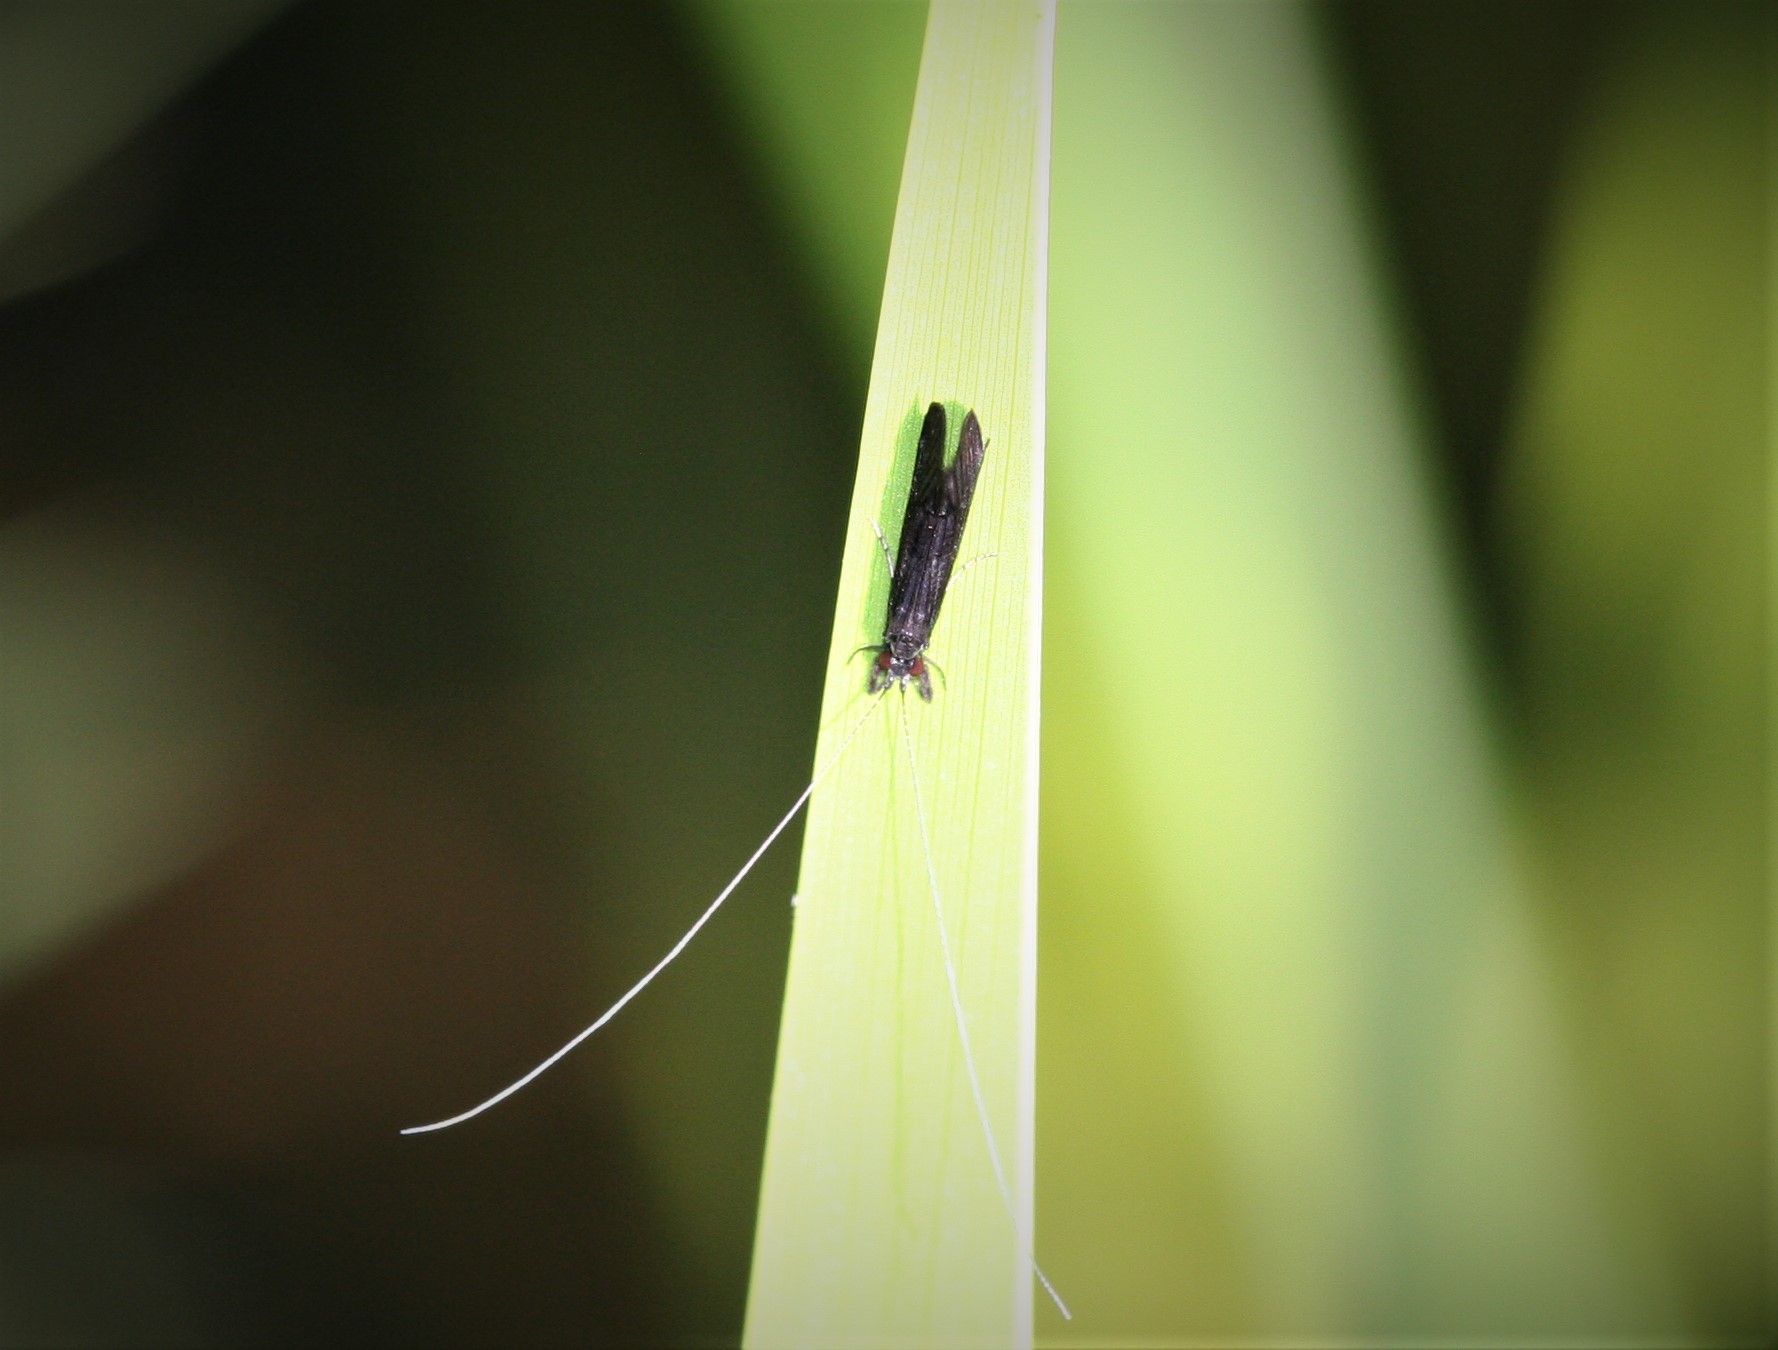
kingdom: Animalia
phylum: Arthropoda
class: Insecta
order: Trichoptera
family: Leptoceridae
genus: Mystacides
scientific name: Mystacides niger
